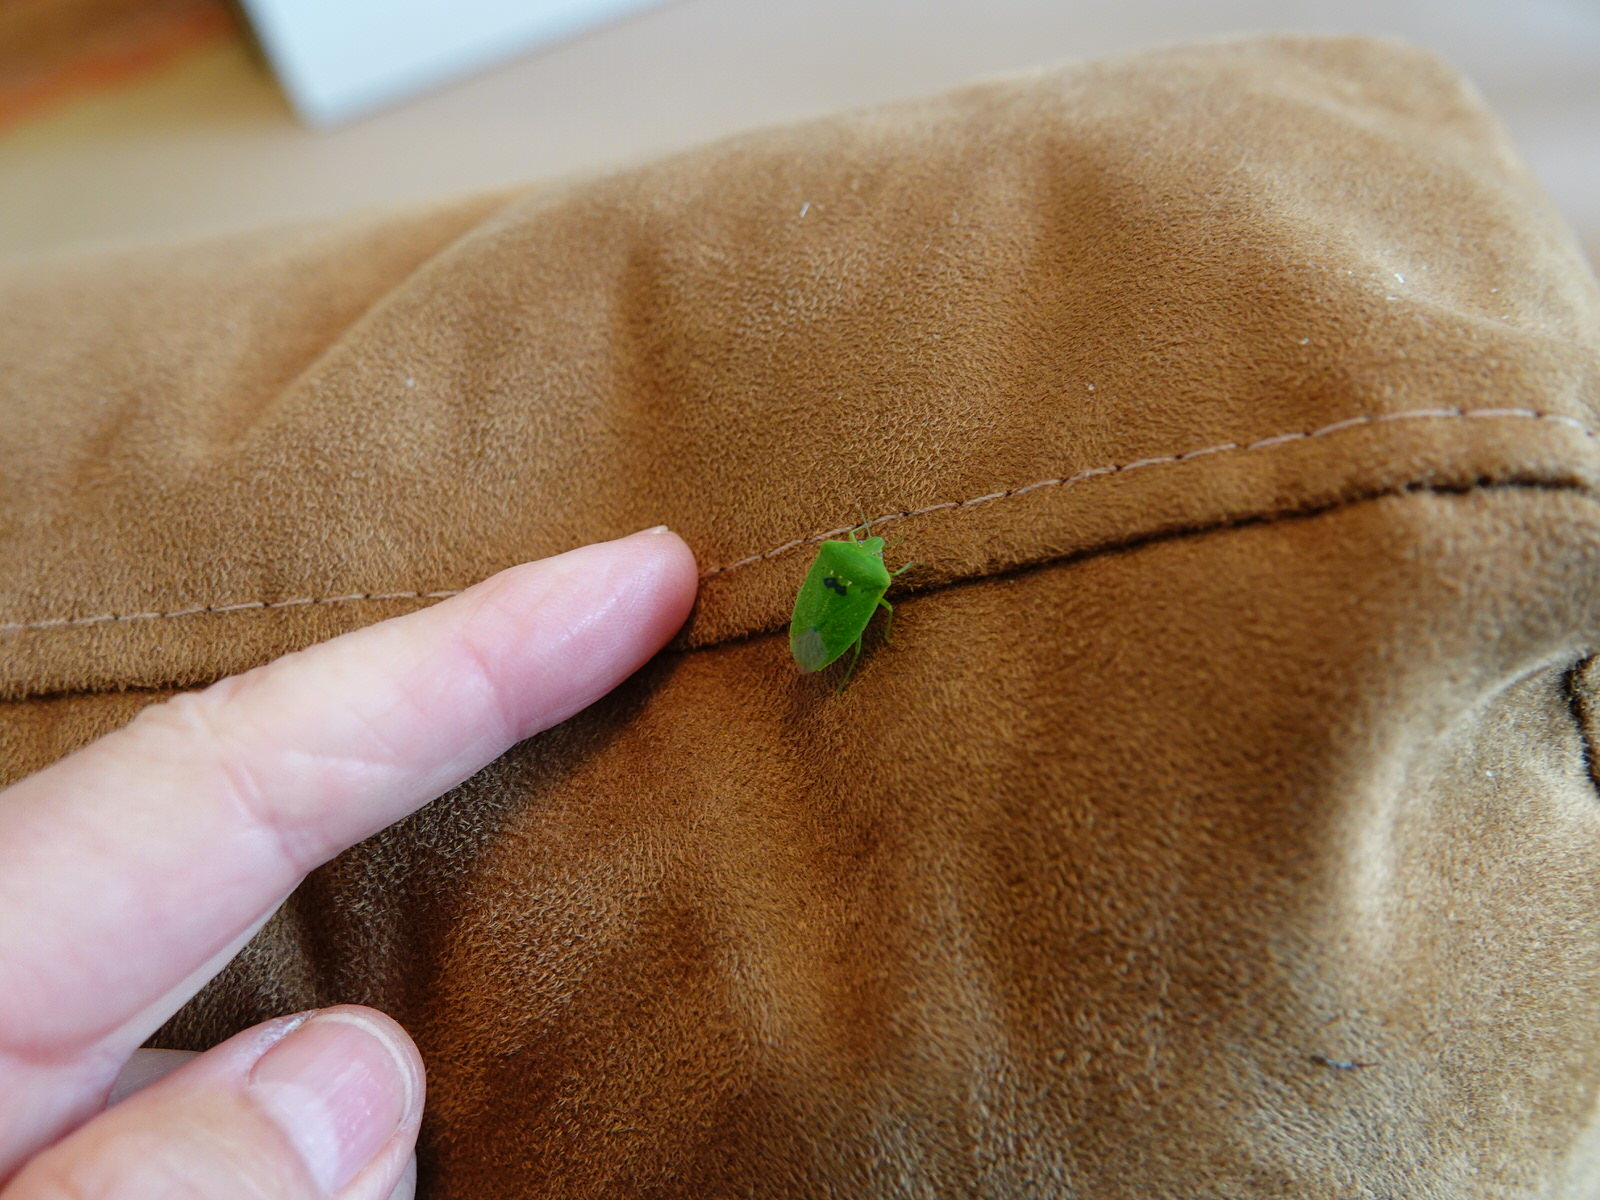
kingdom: Animalia
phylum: Arthropoda
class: Insecta
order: Hemiptera
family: Pentatomidae
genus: Nezara
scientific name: Nezara viridula
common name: Southern green stink bug
